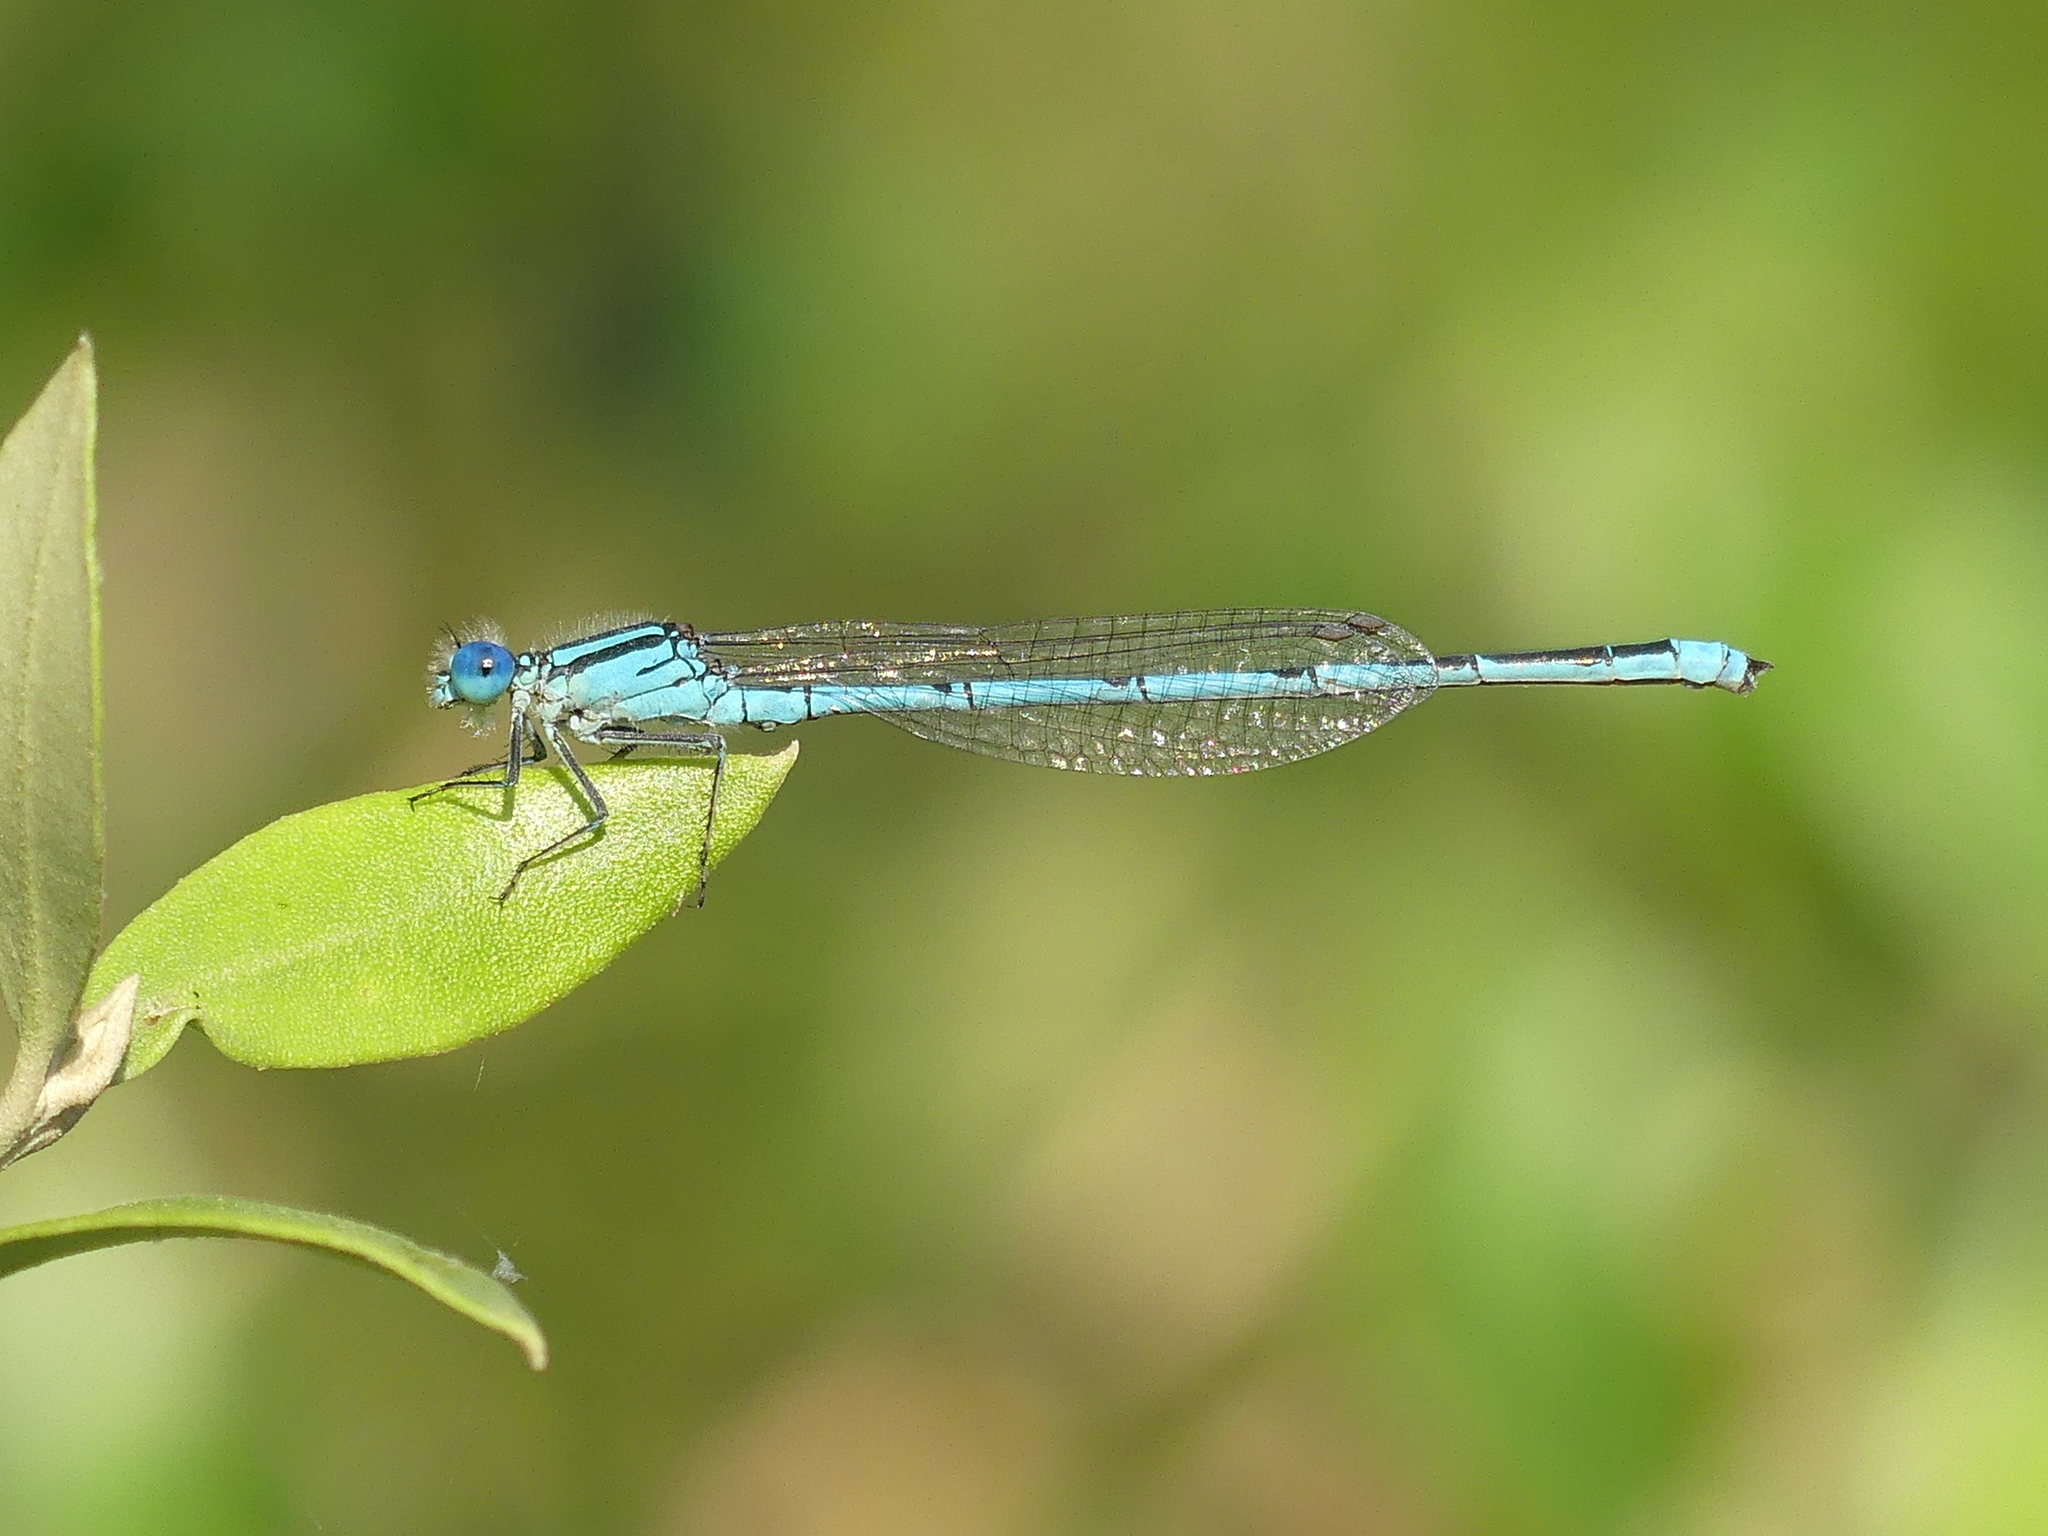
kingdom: Animalia
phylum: Arthropoda
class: Insecta
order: Odonata
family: Coenagrionidae
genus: Erythromma
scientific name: Erythromma lindenii
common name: Blue-eye
